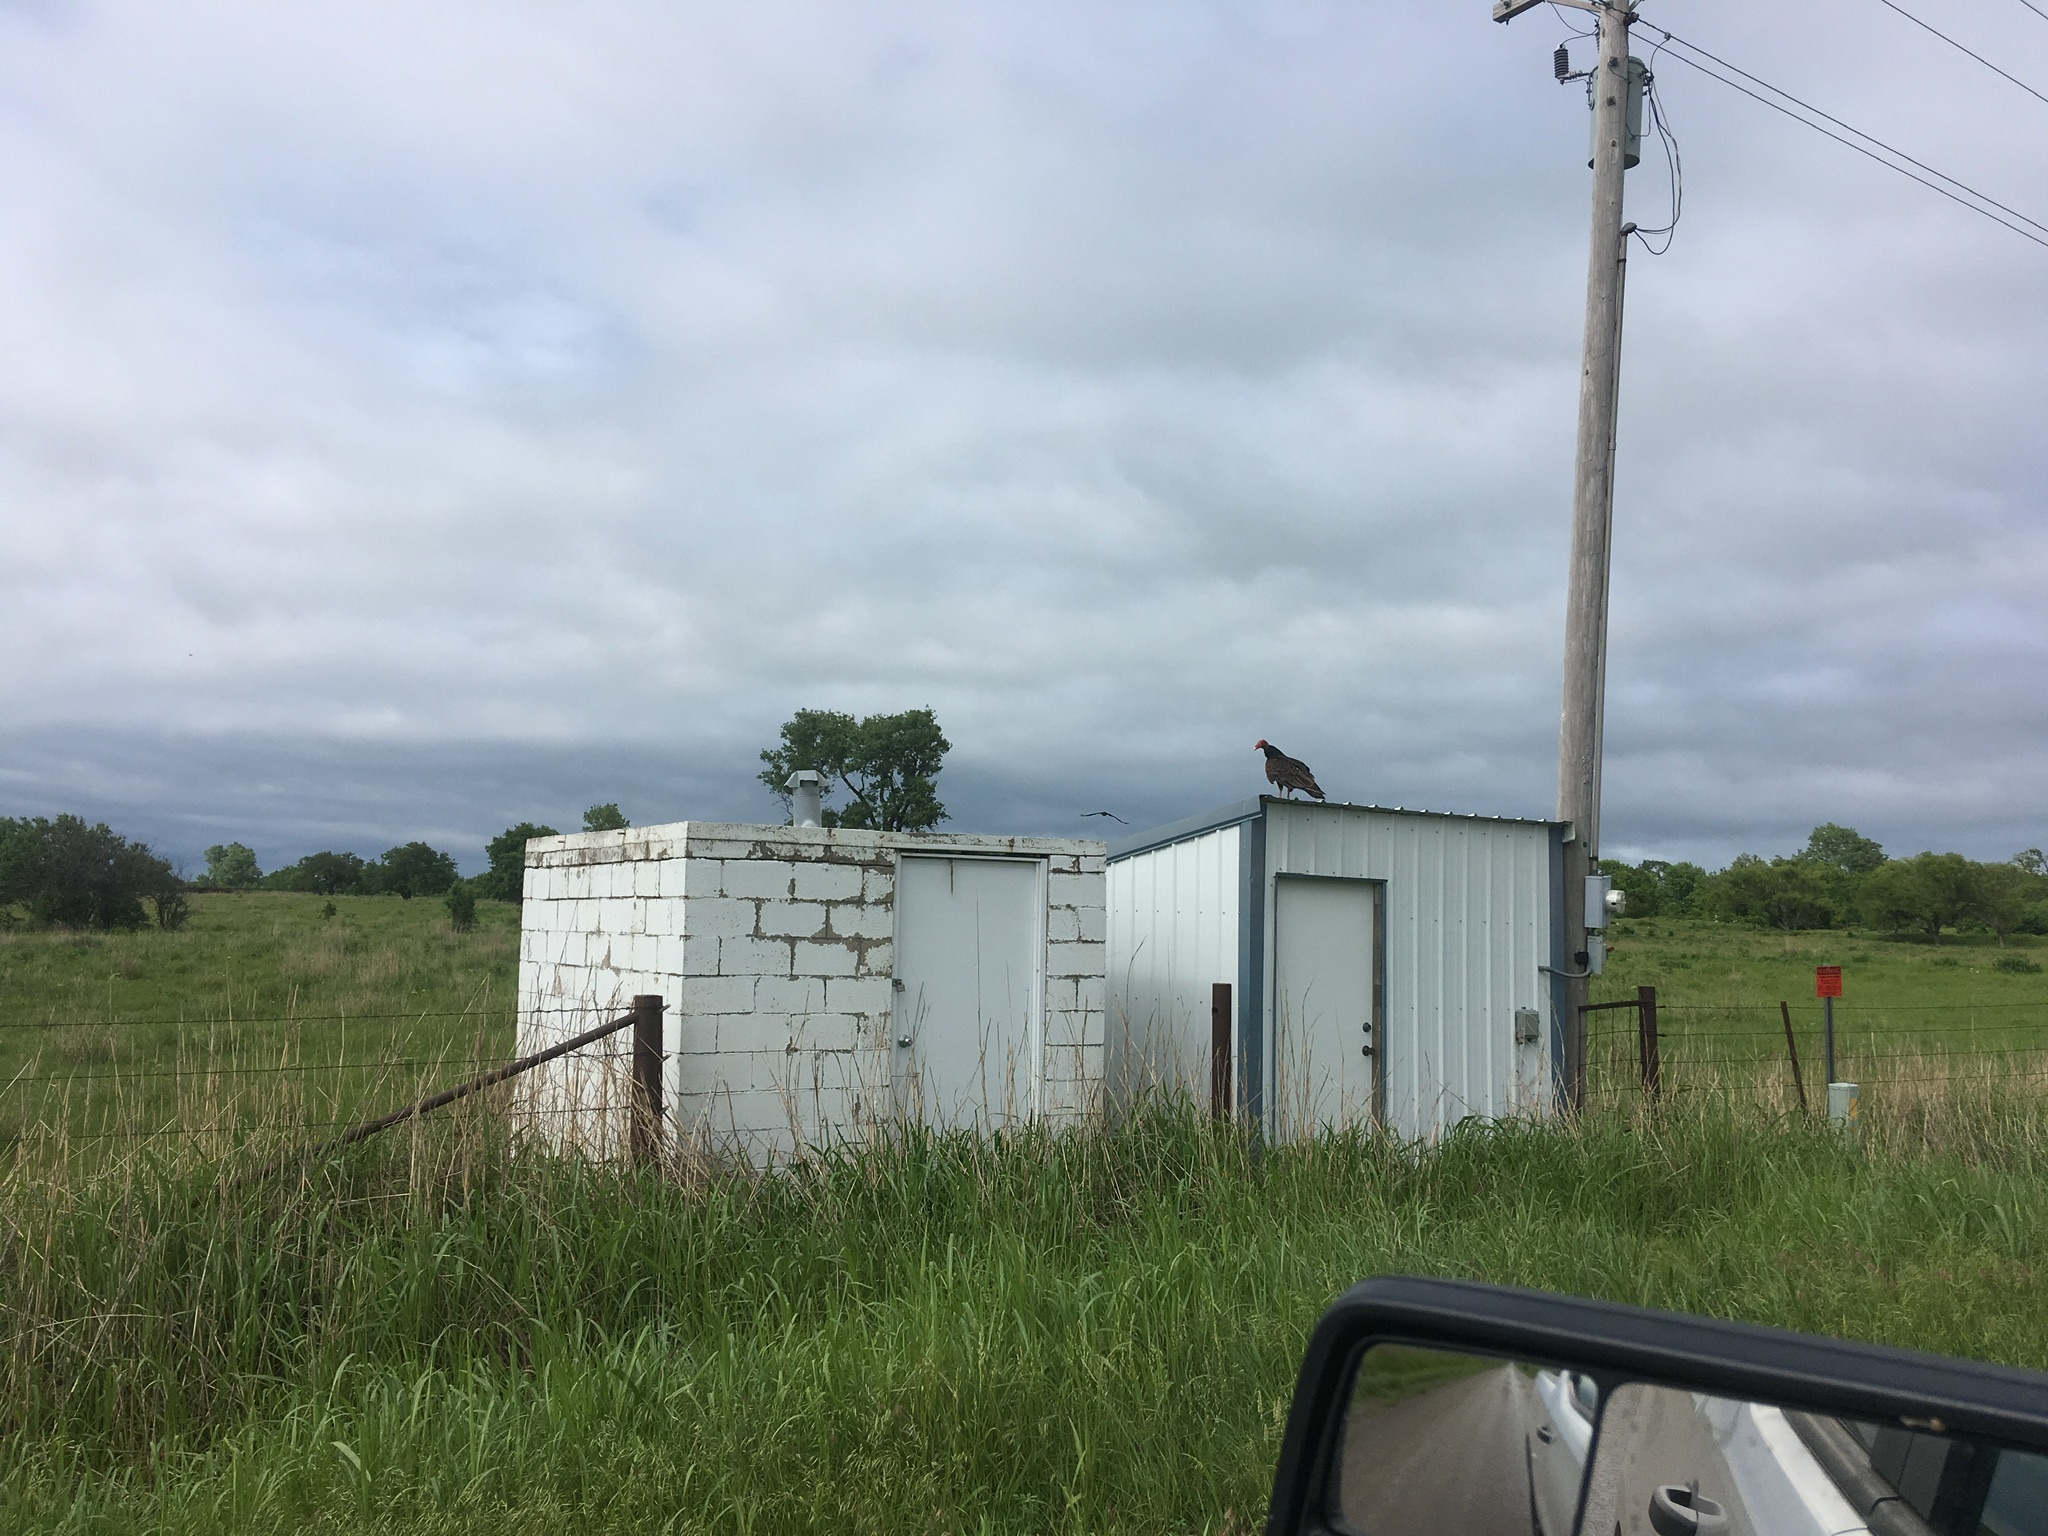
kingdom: Animalia
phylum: Chordata
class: Aves
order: Accipitriformes
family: Cathartidae
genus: Cathartes
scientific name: Cathartes aura
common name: Turkey vulture
